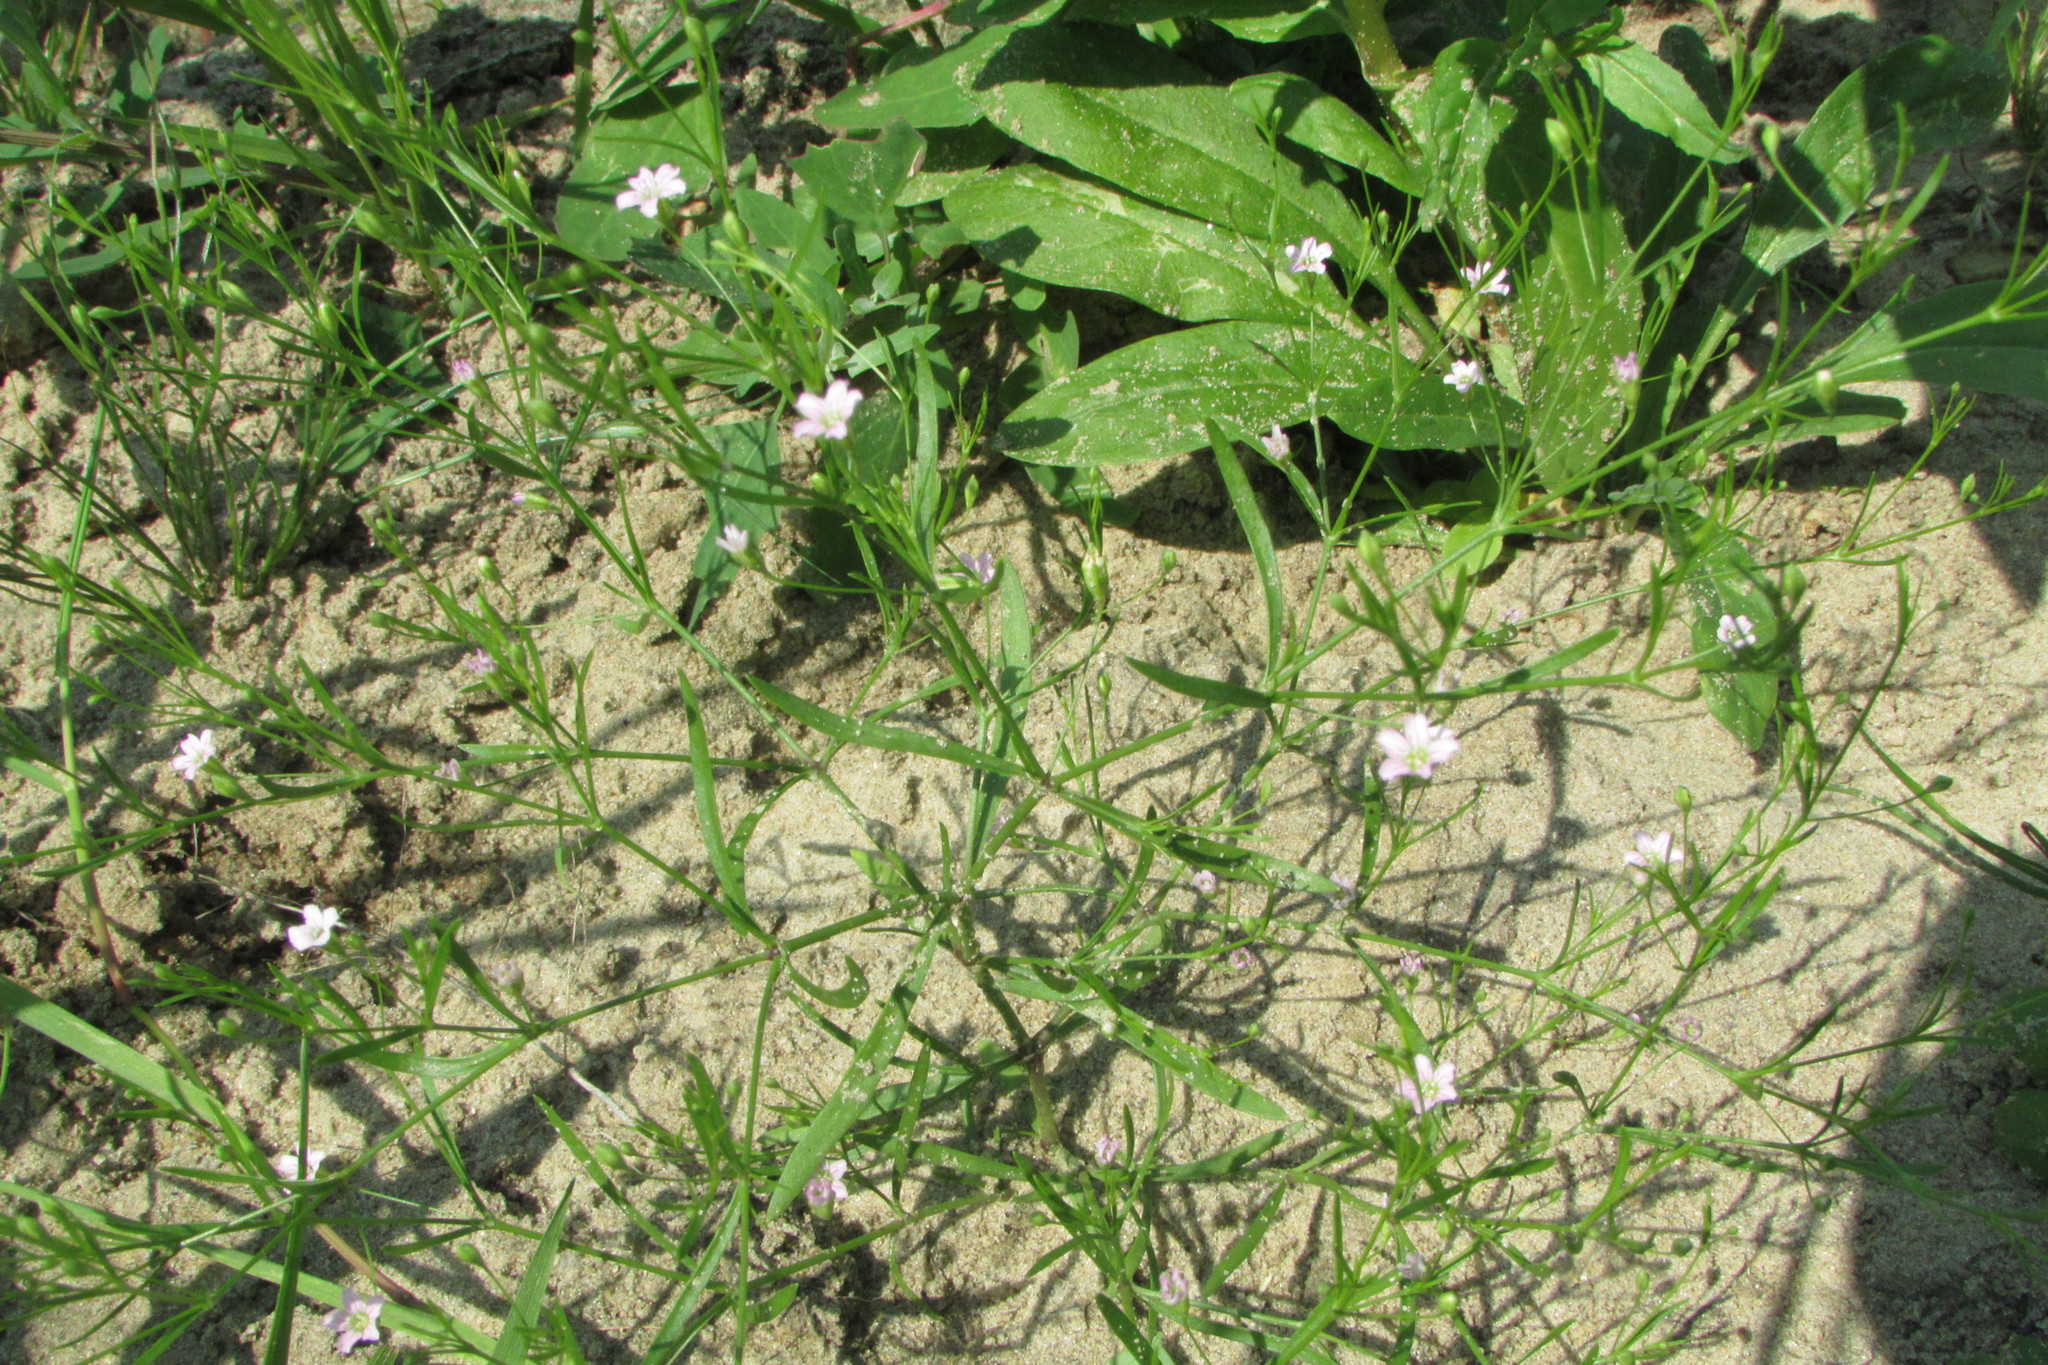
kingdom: Plantae
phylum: Tracheophyta
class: Magnoliopsida
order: Caryophyllales
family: Caryophyllaceae
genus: Psammophiliella
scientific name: Psammophiliella muralis
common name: Cushion baby's-breath
